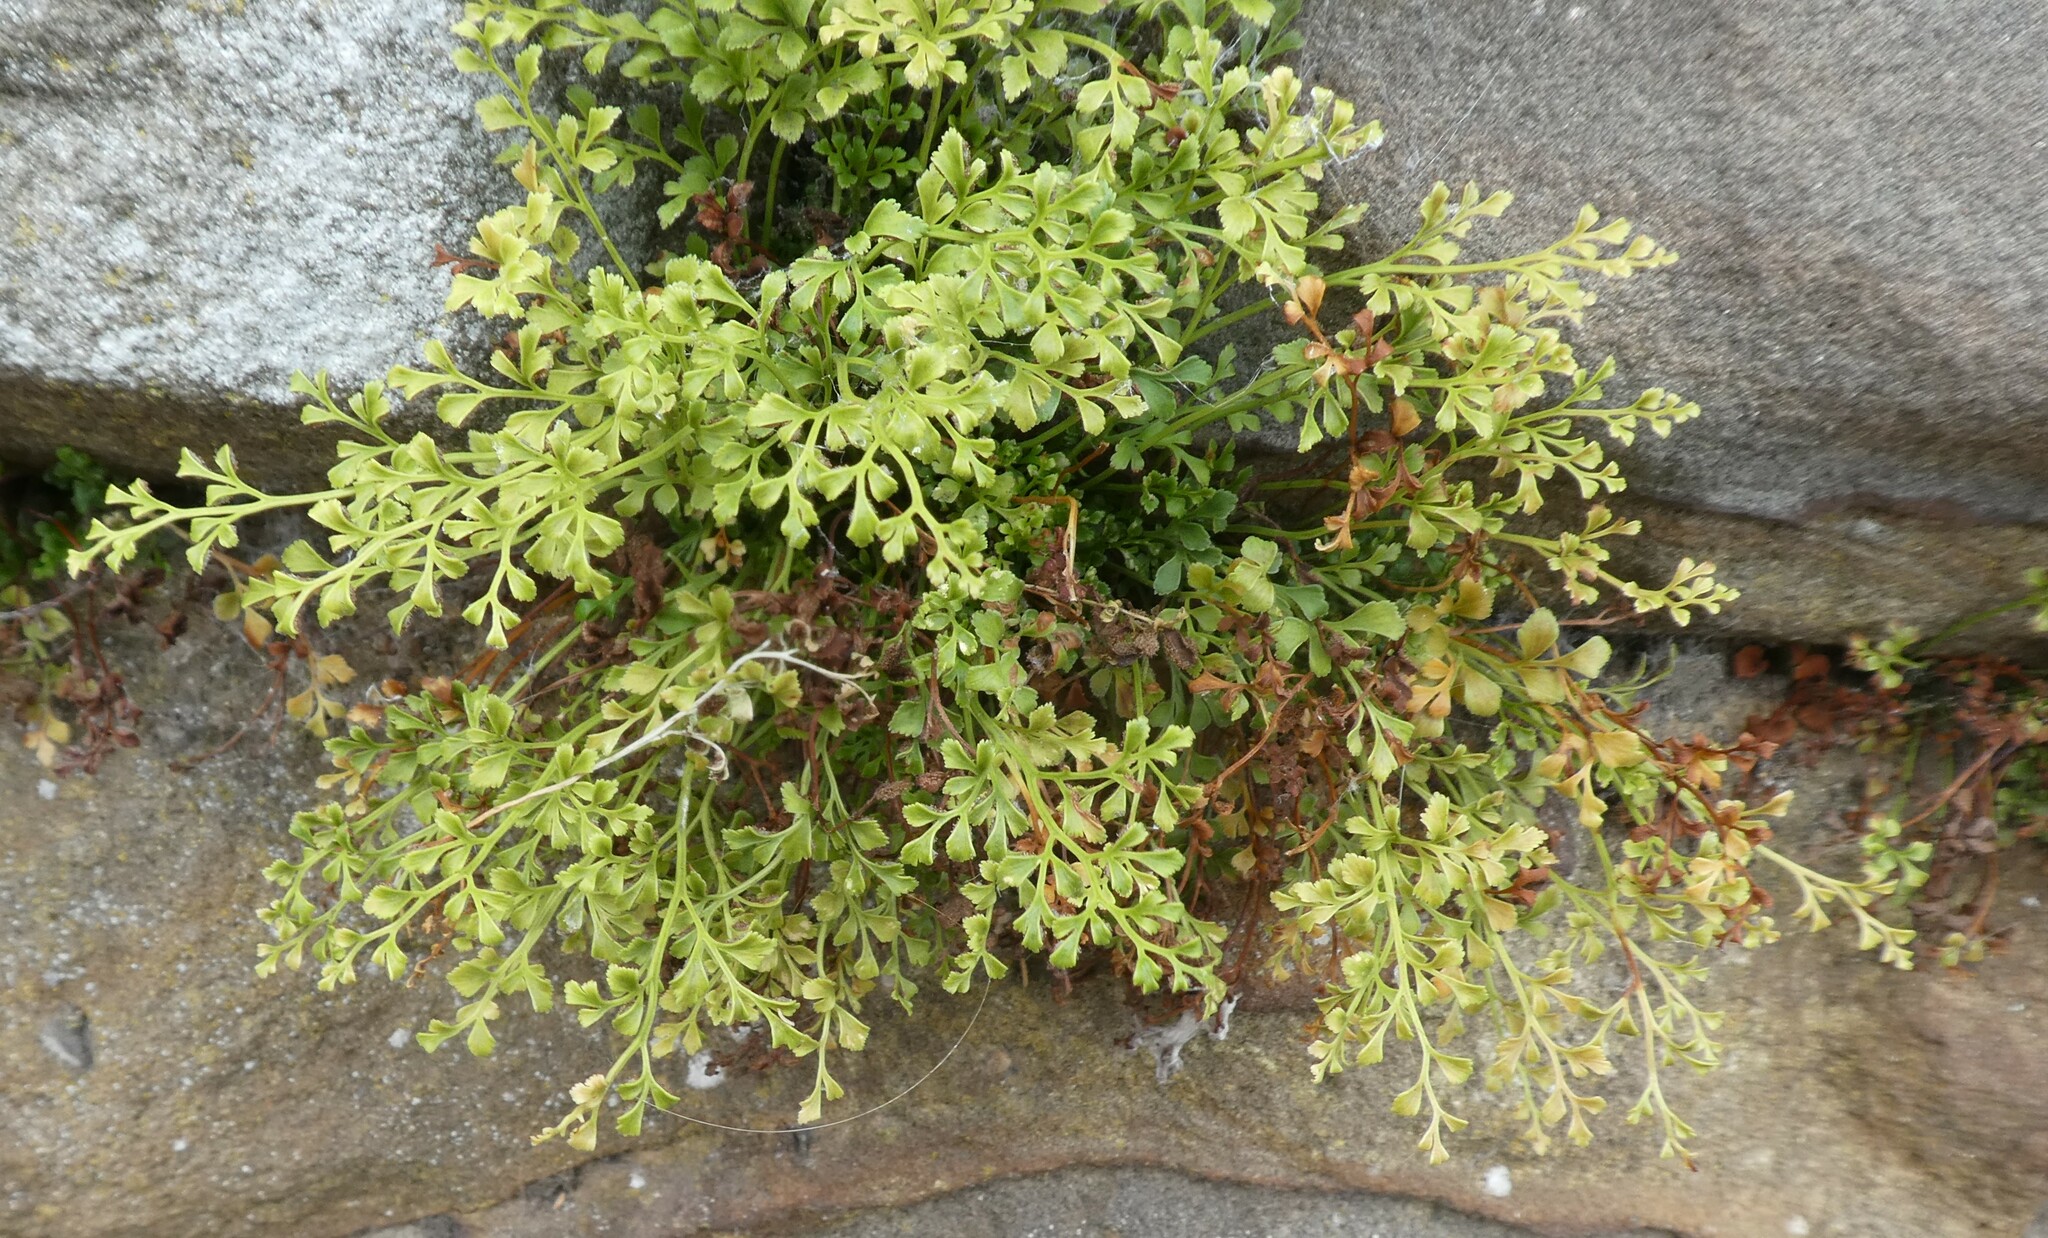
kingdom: Plantae
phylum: Tracheophyta
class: Polypodiopsida
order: Polypodiales
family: Aspleniaceae
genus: Asplenium
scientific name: Asplenium ruta-muraria
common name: Wall-rue
